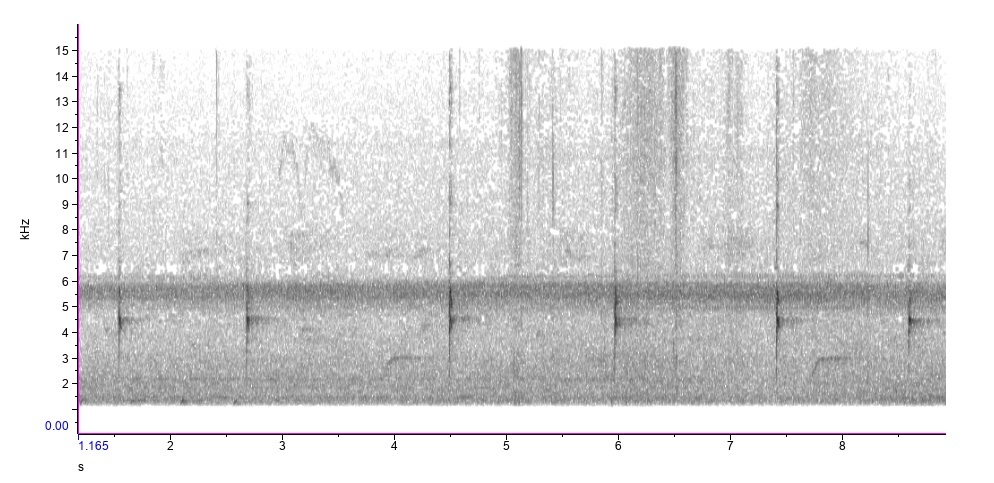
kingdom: Animalia
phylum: Chordata
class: Aves
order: Passeriformes
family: Cardinalidae
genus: Passerina
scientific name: Passerina caerulea
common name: Blue grosbeak
